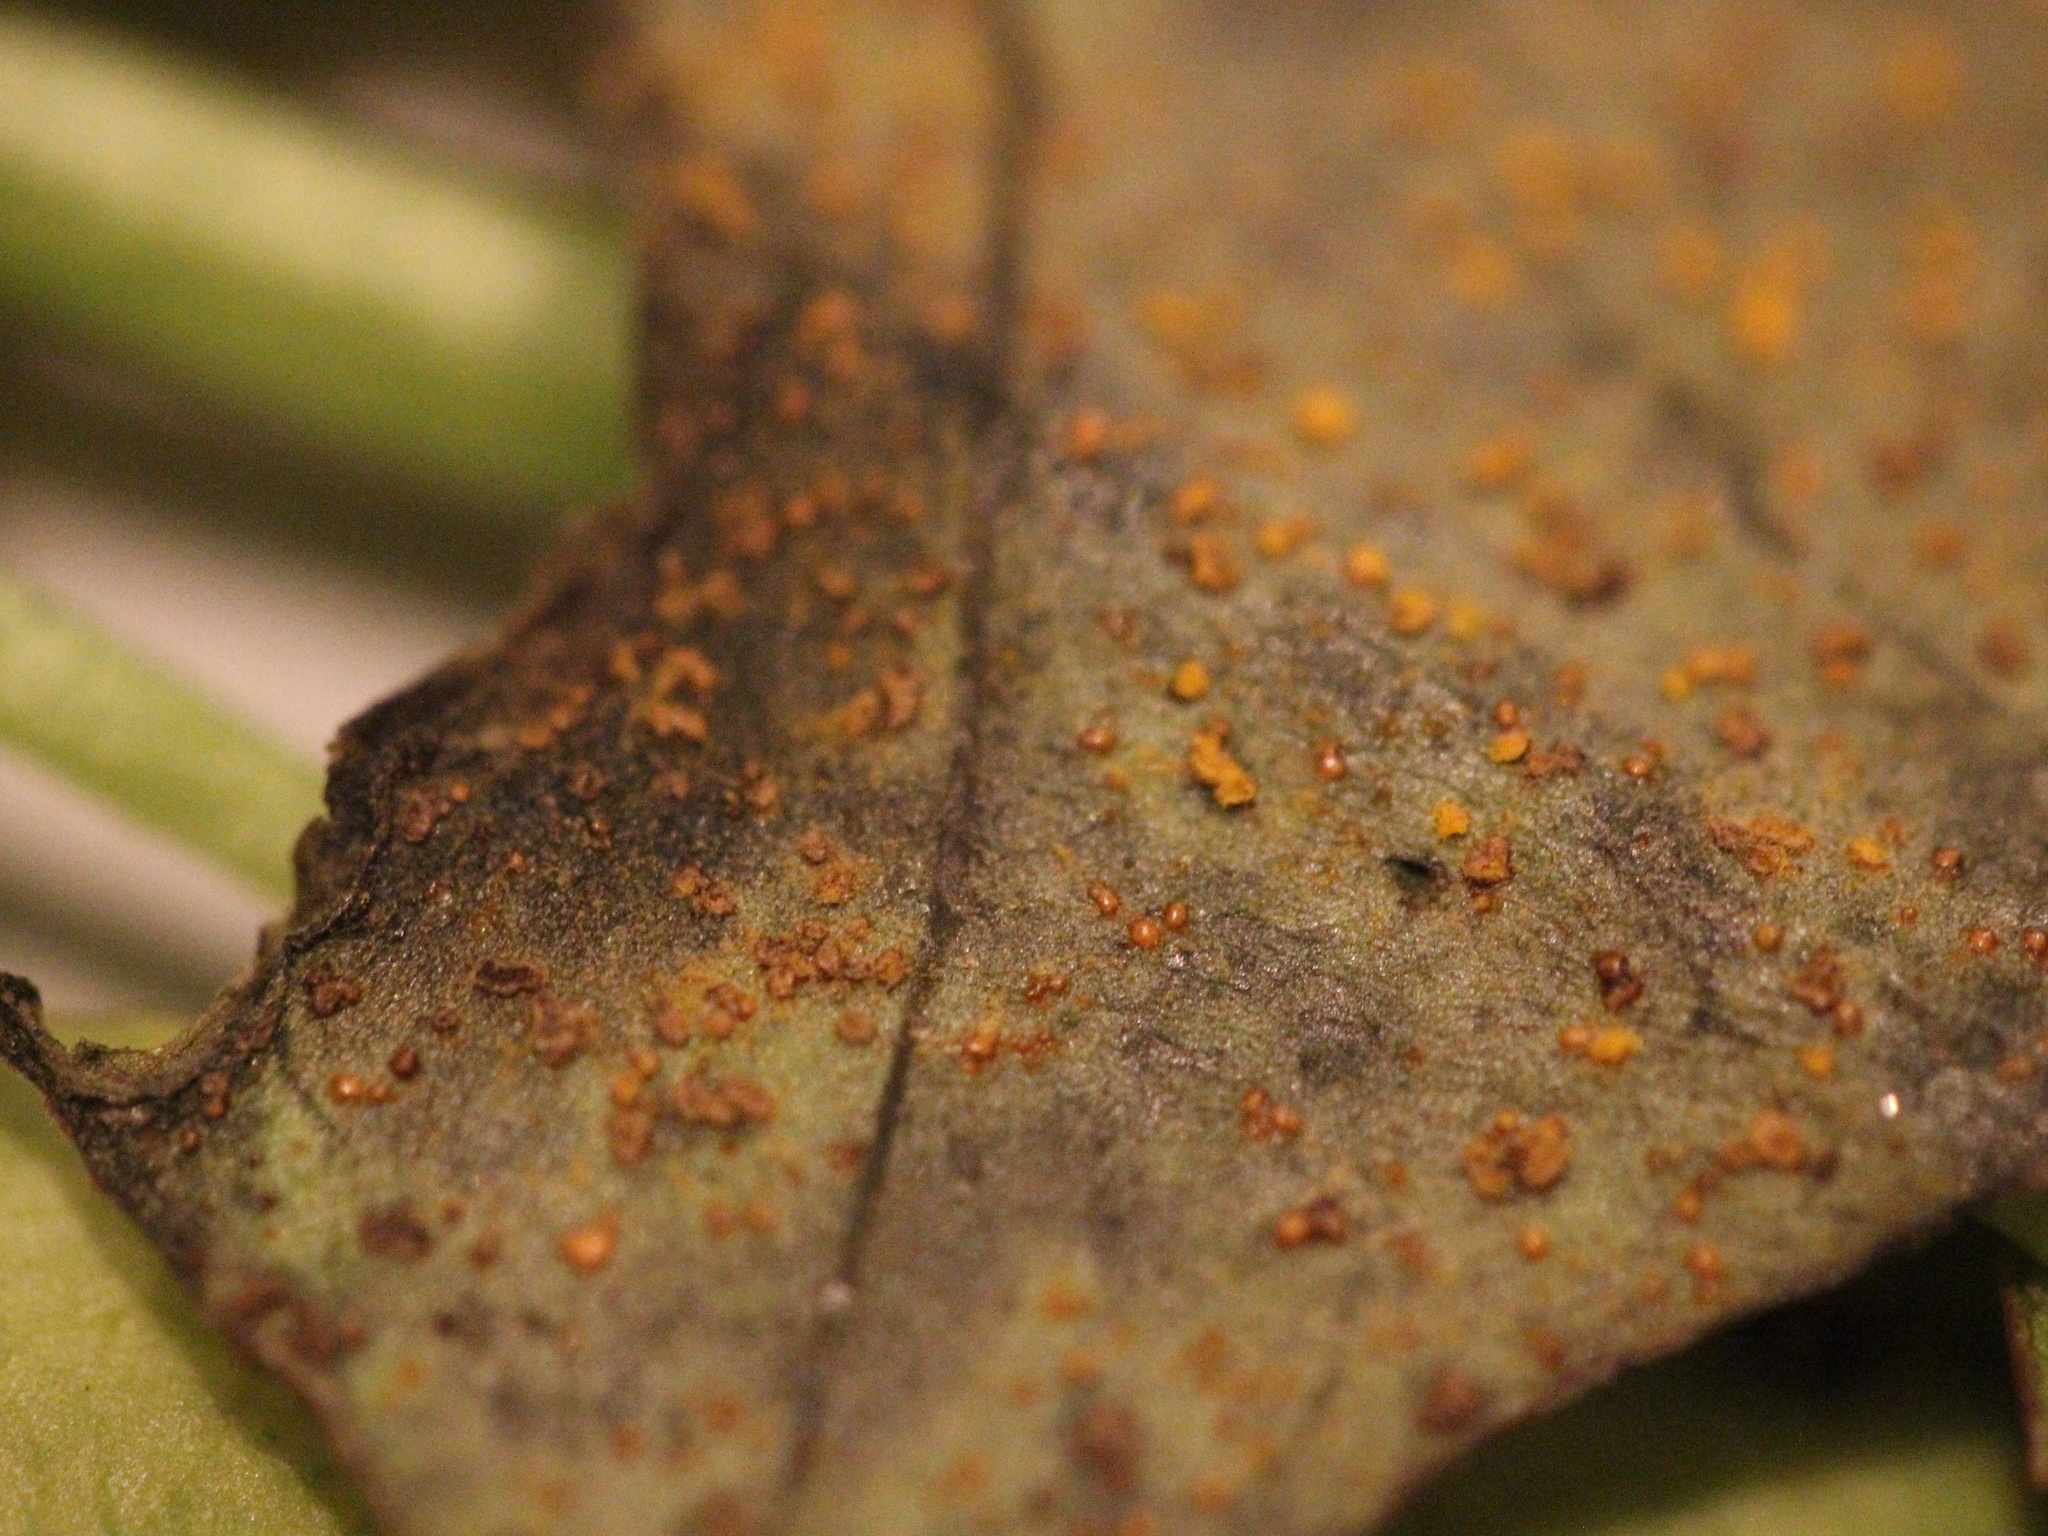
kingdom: Fungi
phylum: Basidiomycota
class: Pucciniomycetes
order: Pucciniales
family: Coleosporiaceae
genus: Coleosporium
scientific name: Coleosporium tussilaginis
